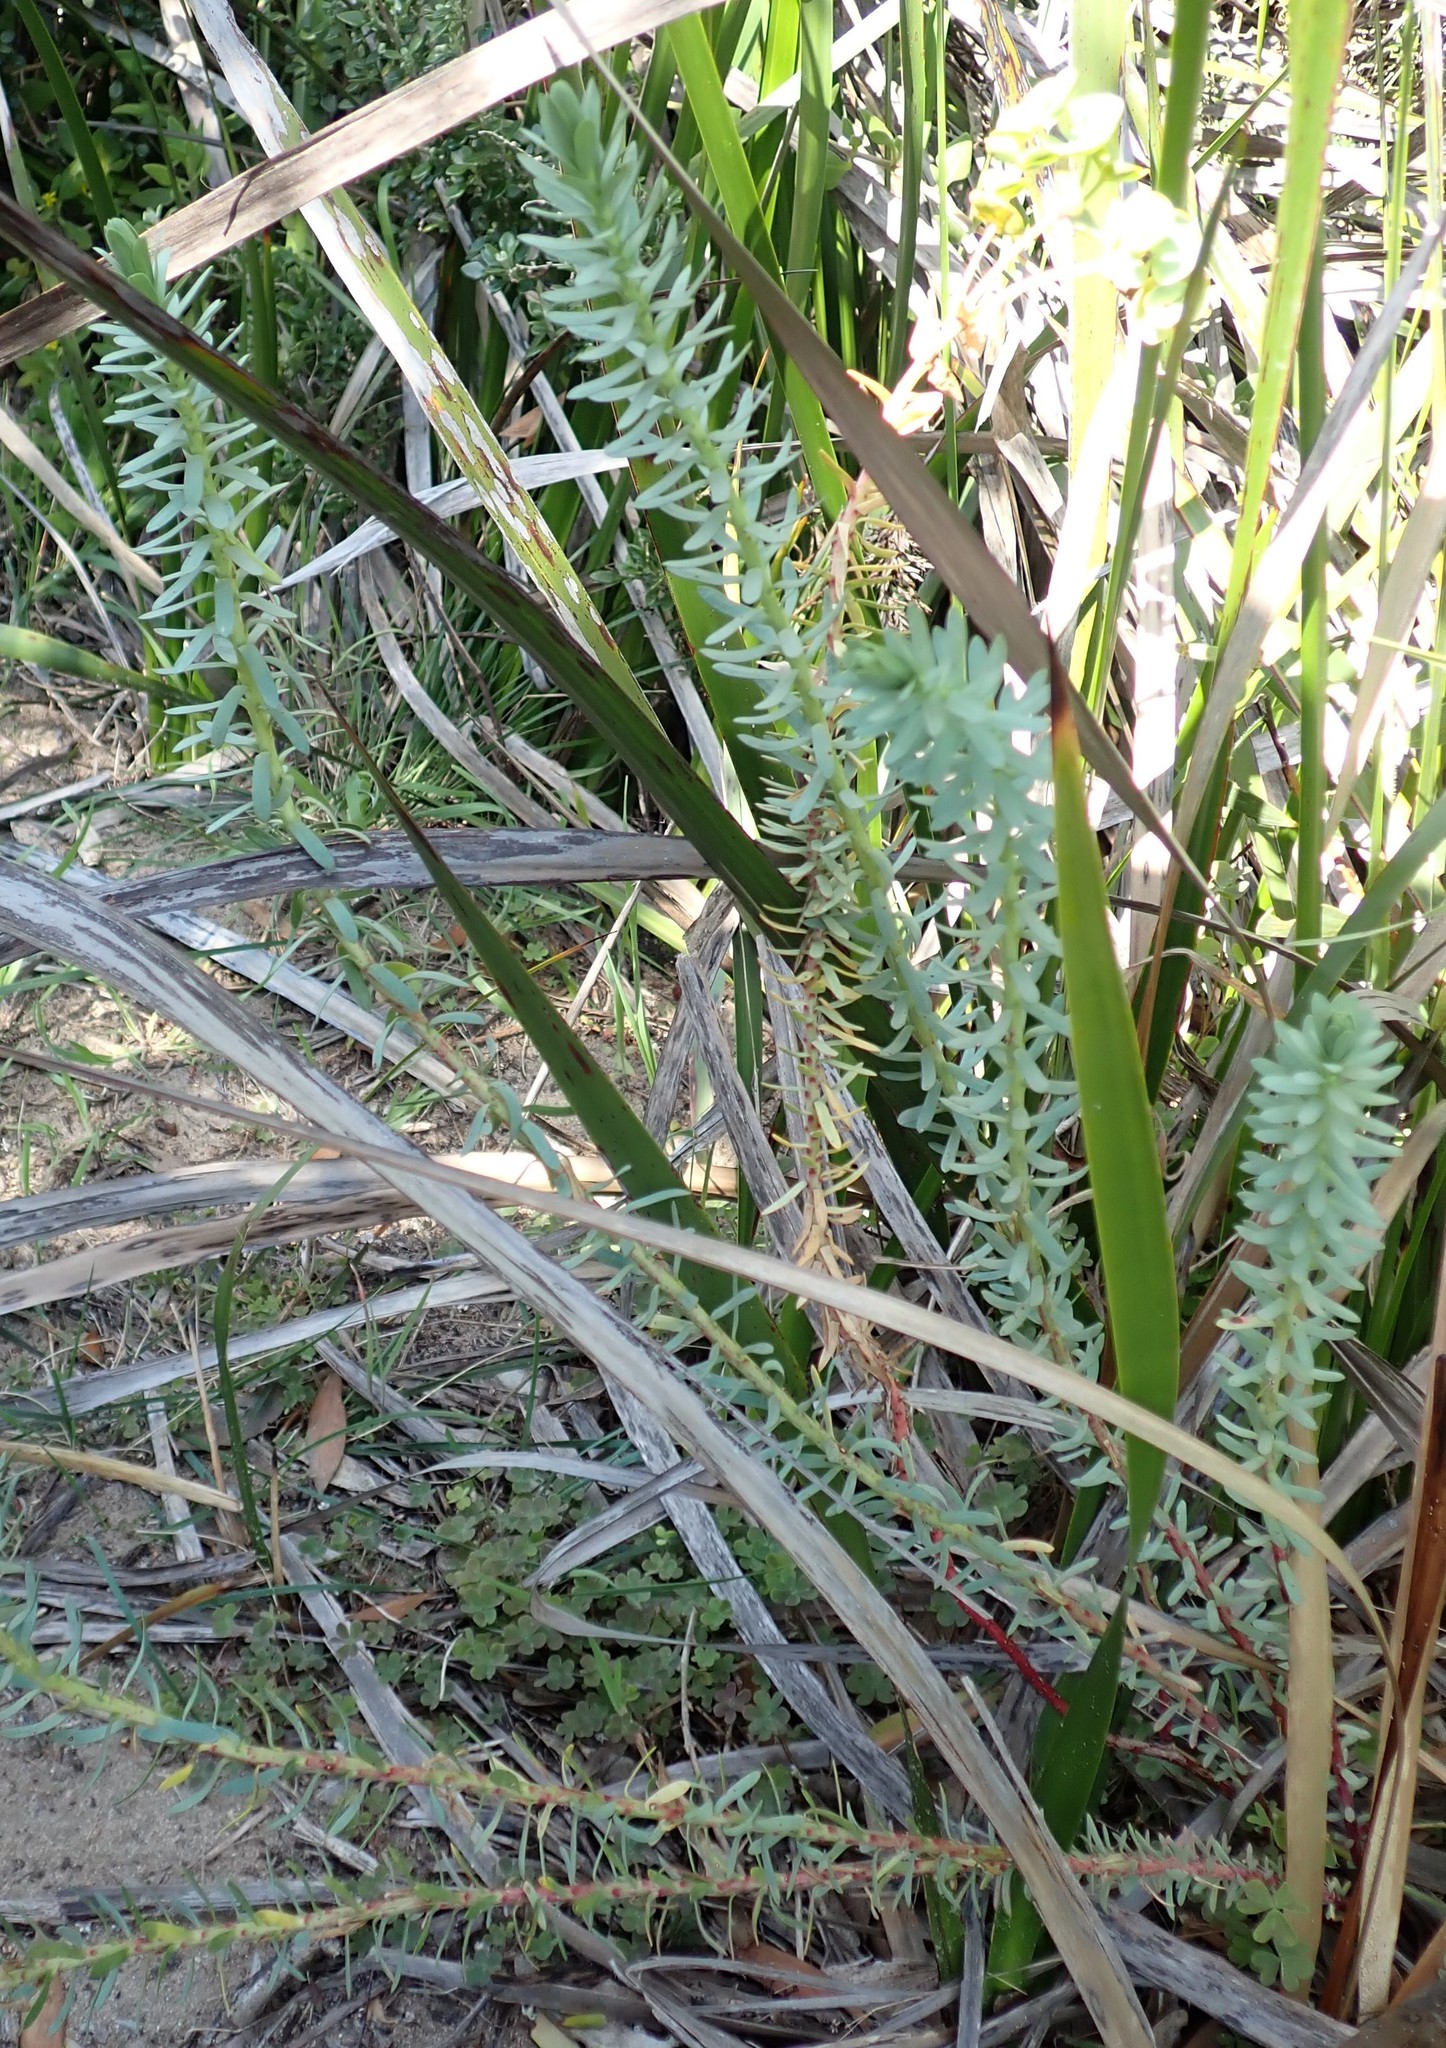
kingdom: Plantae
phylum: Tracheophyta
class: Magnoliopsida
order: Malpighiales
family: Euphorbiaceae
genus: Euphorbia
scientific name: Euphorbia paralias
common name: Sea spurge
